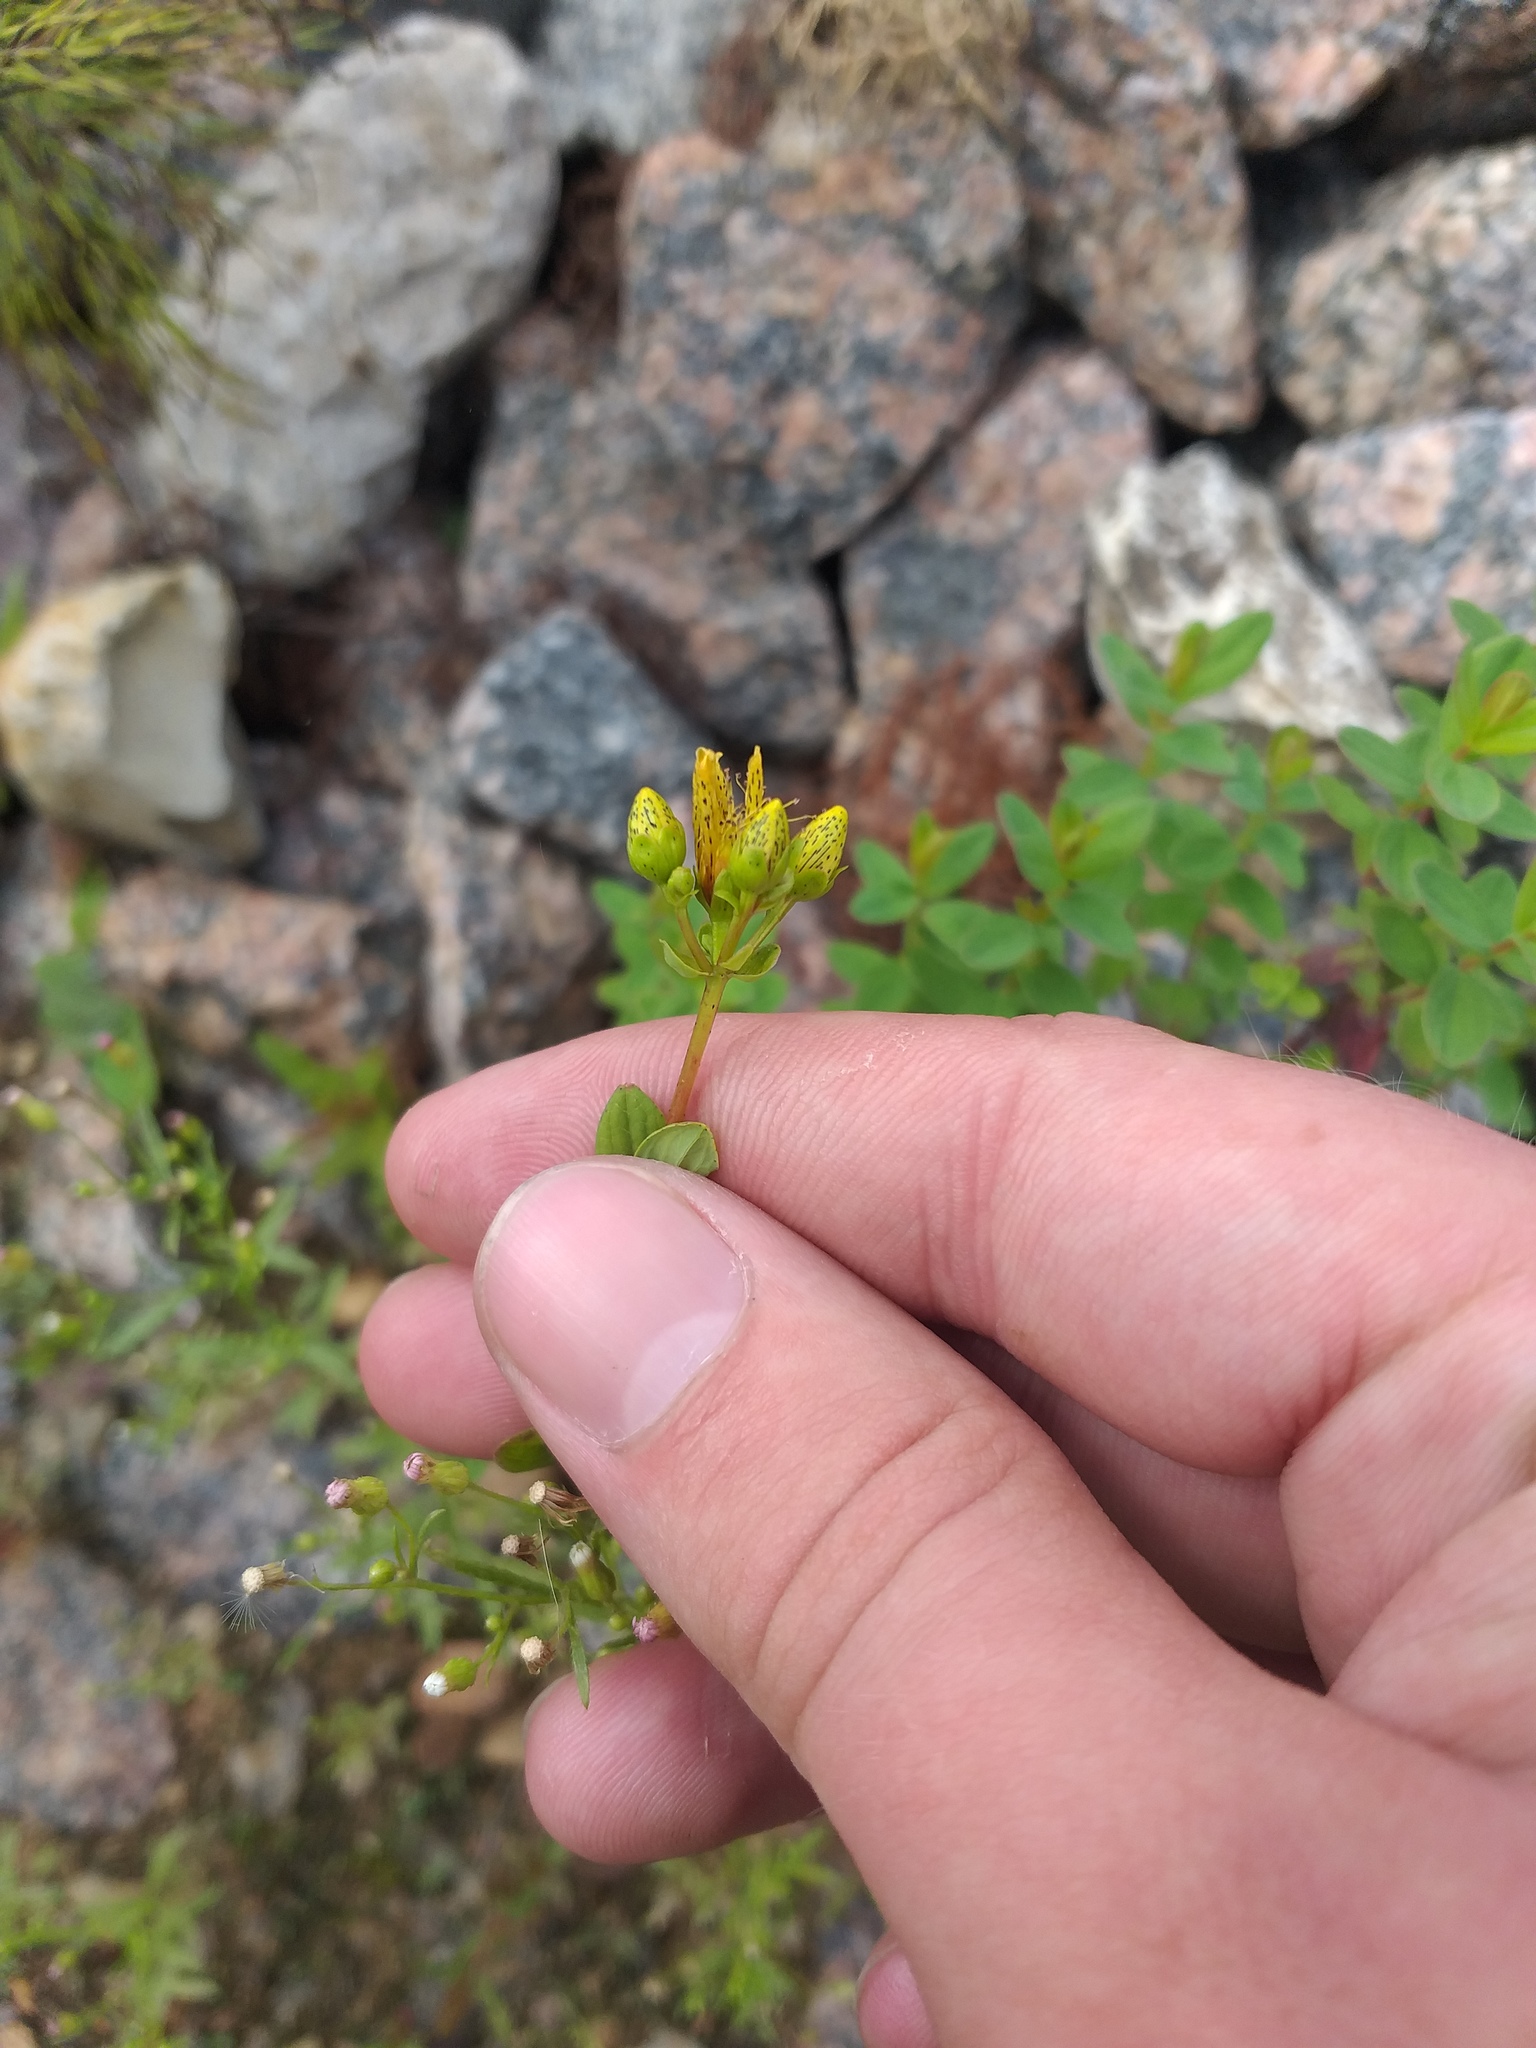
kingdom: Plantae
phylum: Tracheophyta
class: Magnoliopsida
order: Malpighiales
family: Hypericaceae
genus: Hypericum
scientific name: Hypericum maculatum
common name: Imperforate st. john's-wort
